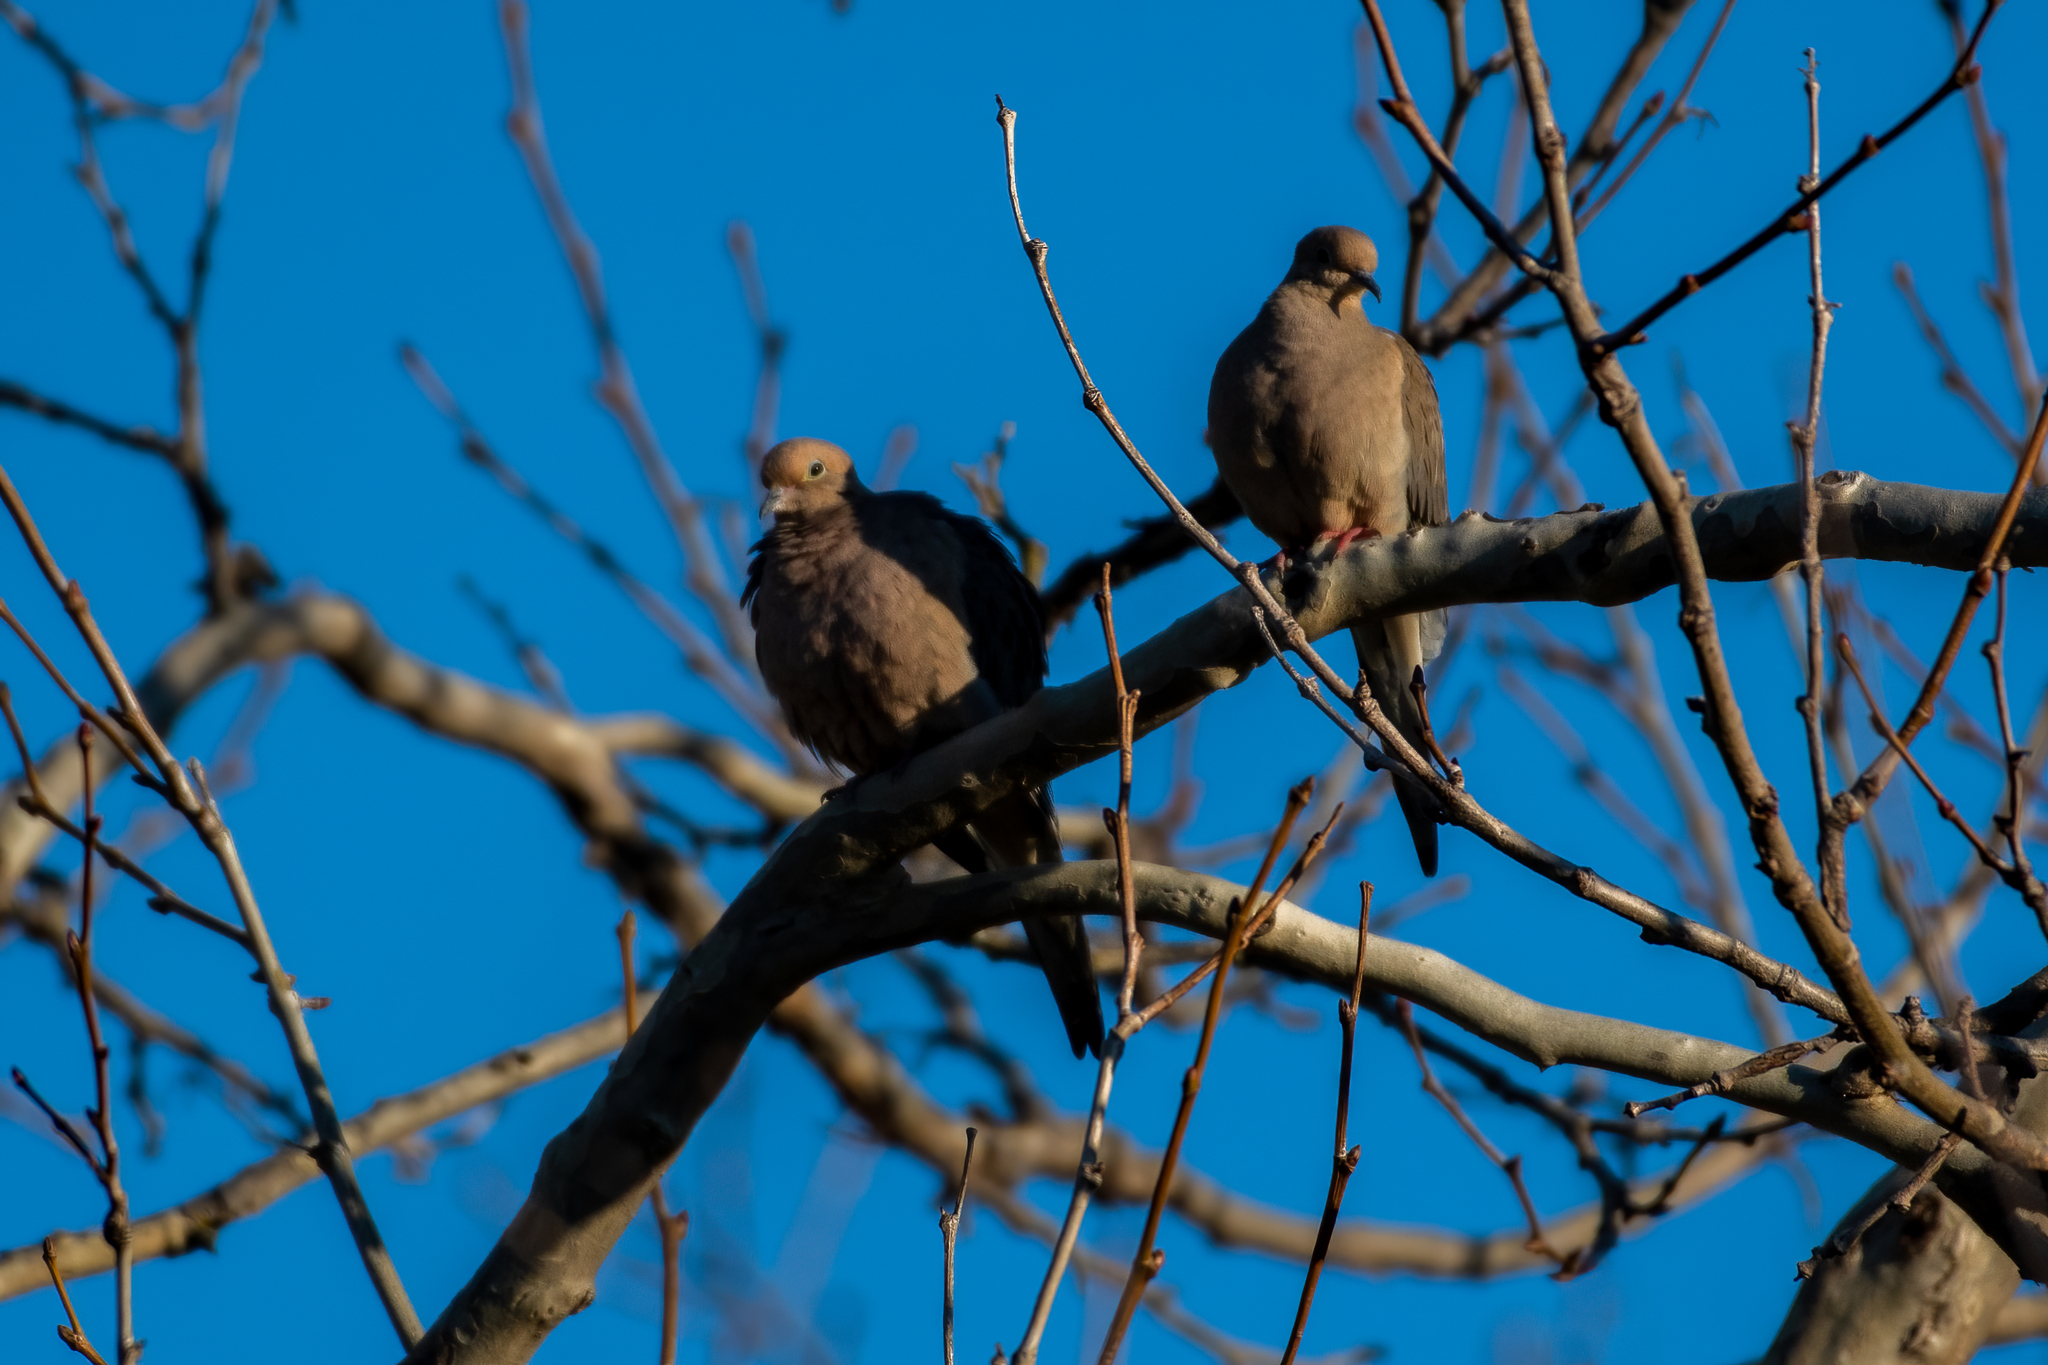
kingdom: Animalia
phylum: Chordata
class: Aves
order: Columbiformes
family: Columbidae
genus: Zenaida
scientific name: Zenaida macroura
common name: Mourning dove
